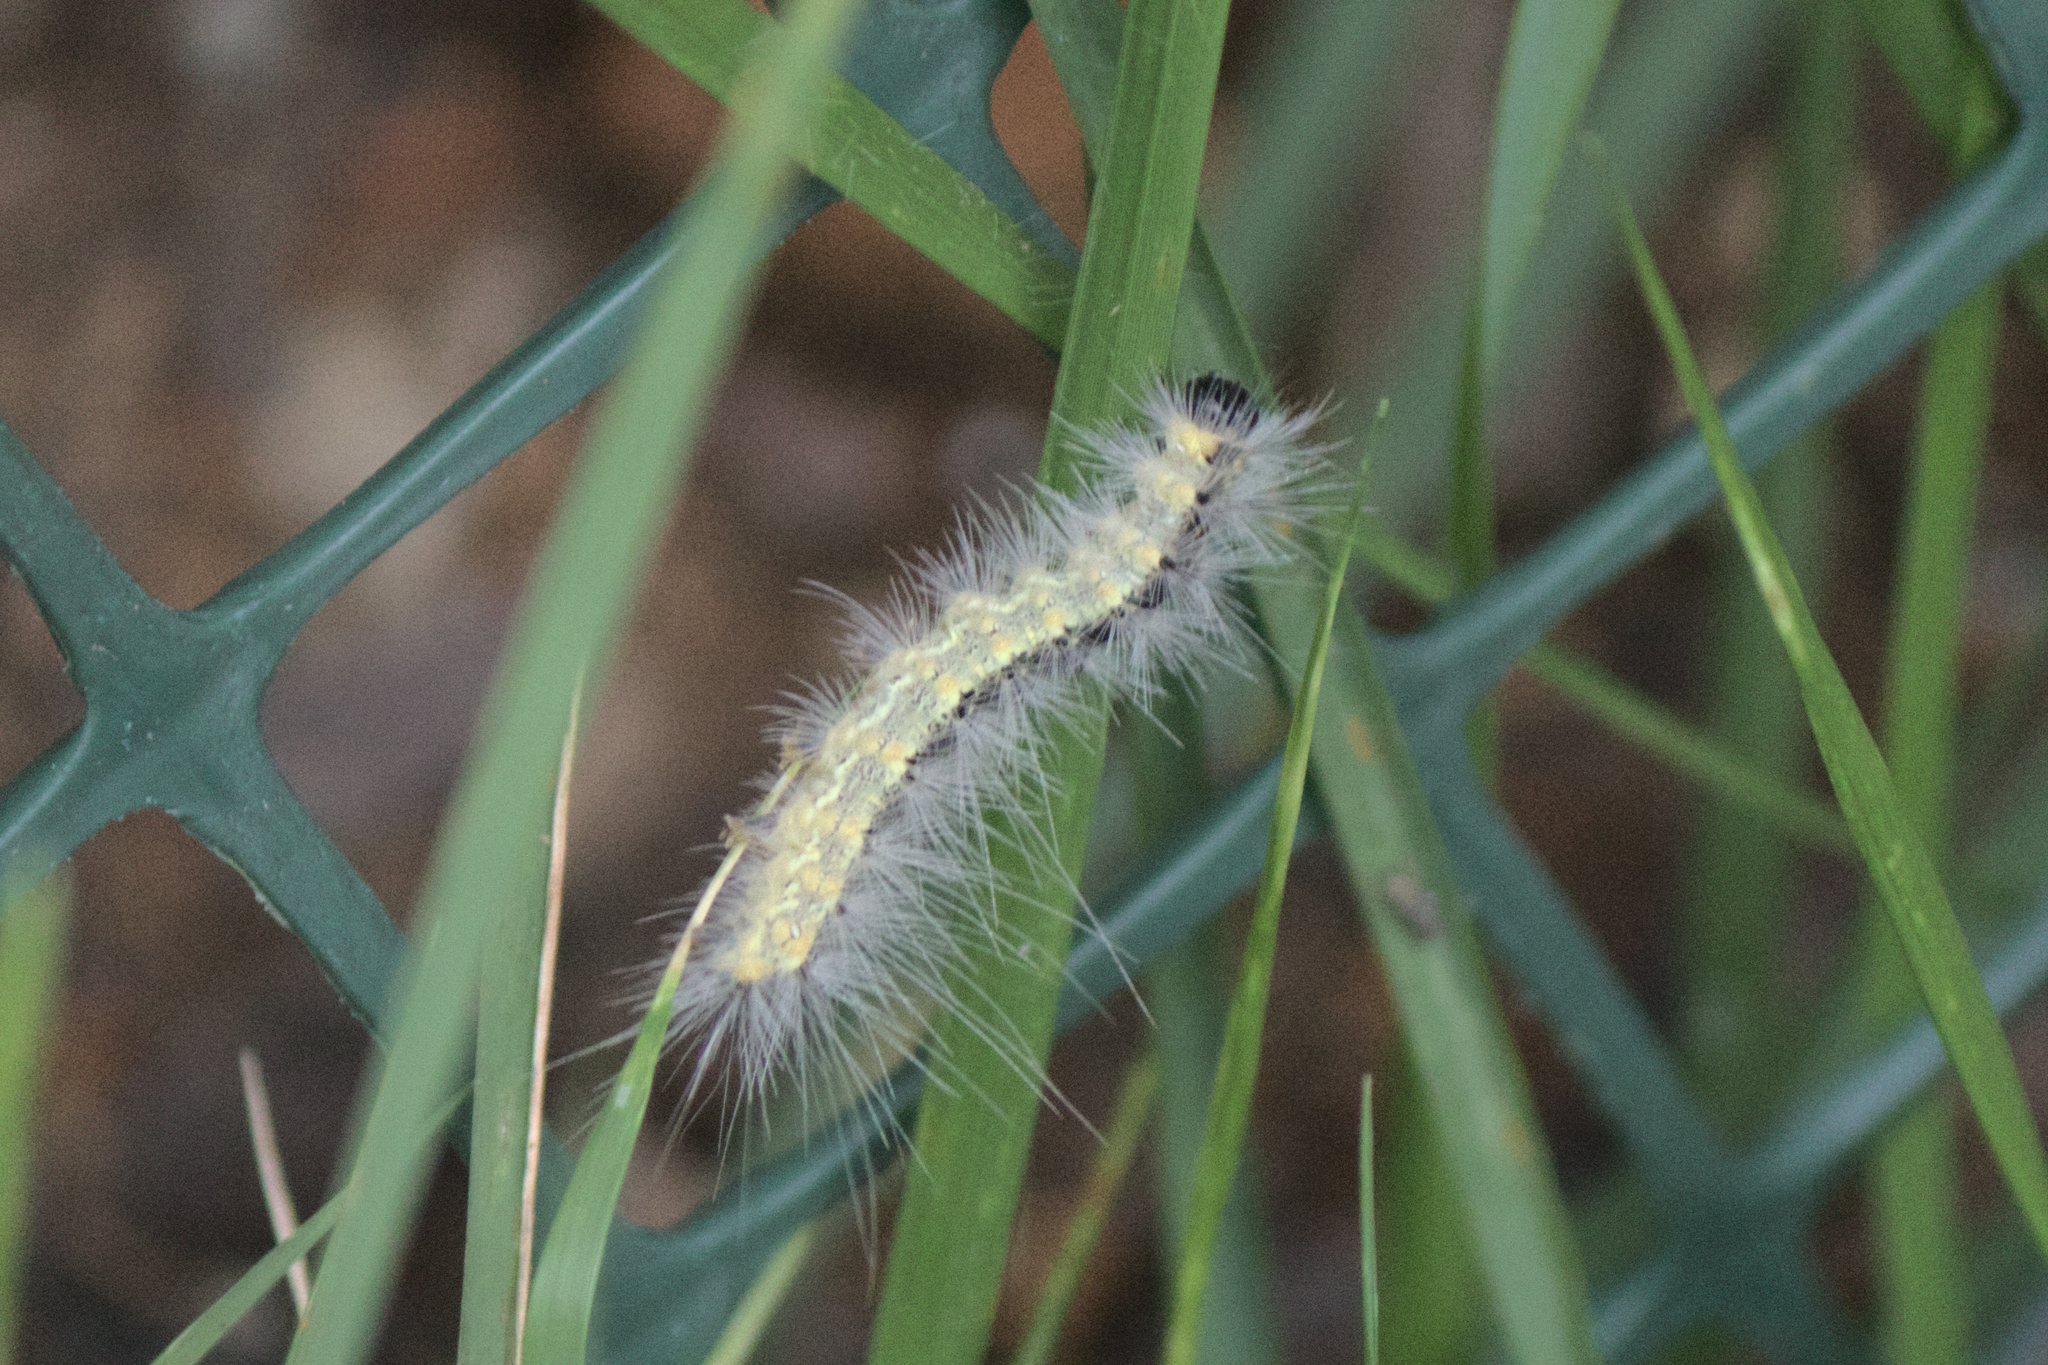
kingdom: Animalia
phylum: Arthropoda
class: Insecta
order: Lepidoptera
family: Erebidae
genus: Hyphantria
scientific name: Hyphantria cunea
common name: American white moth
